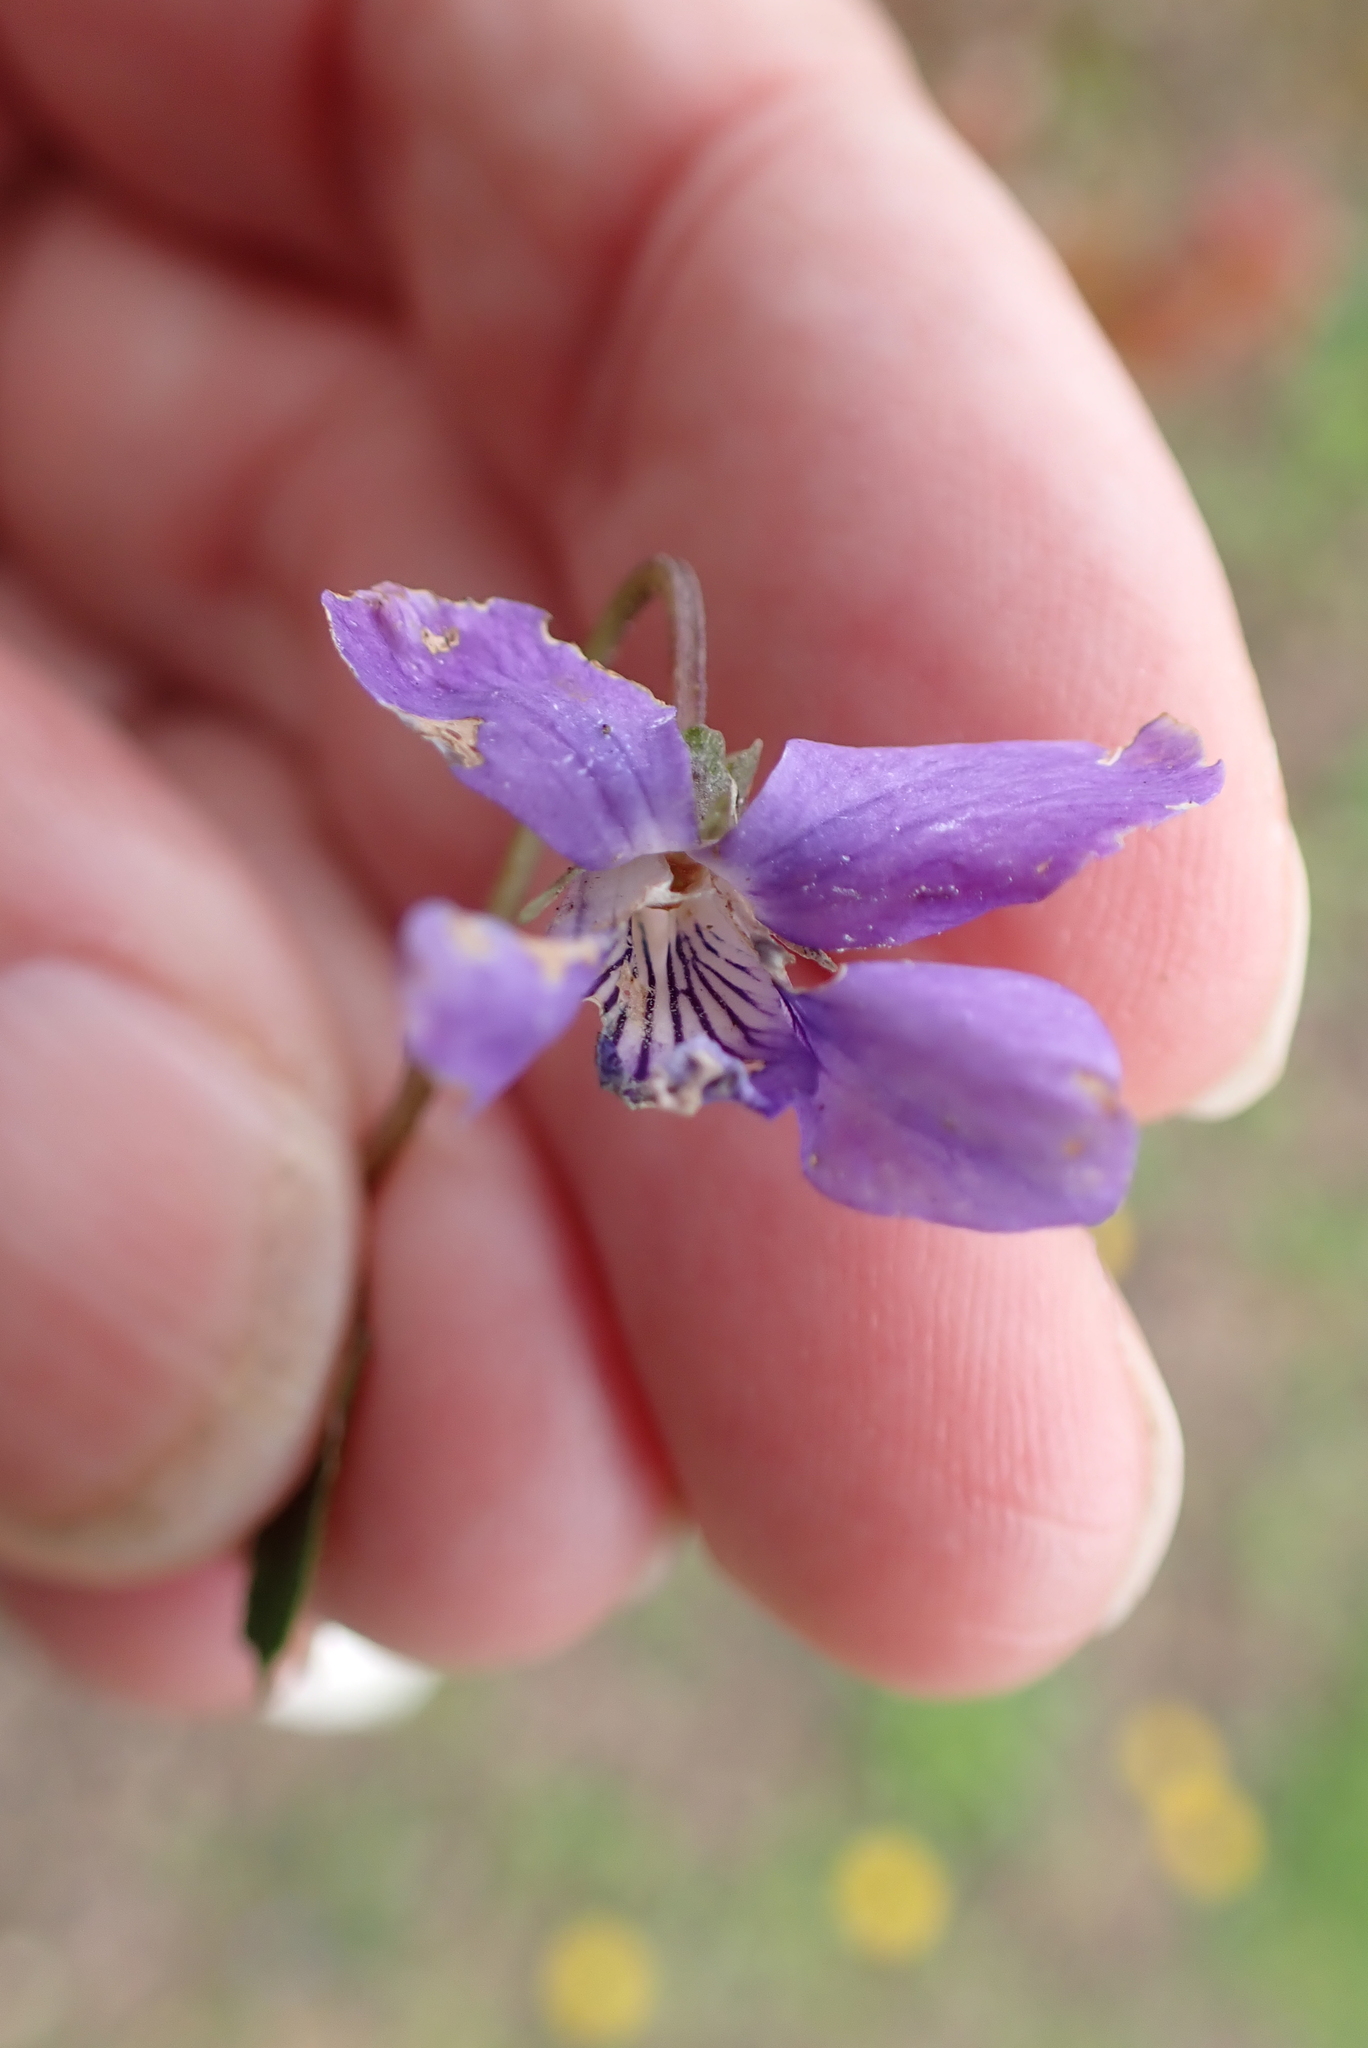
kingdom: Plantae
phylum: Tracheophyta
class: Magnoliopsida
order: Malpighiales
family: Violaceae
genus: Viola
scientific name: Viola riviniana
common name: Common dog-violet
